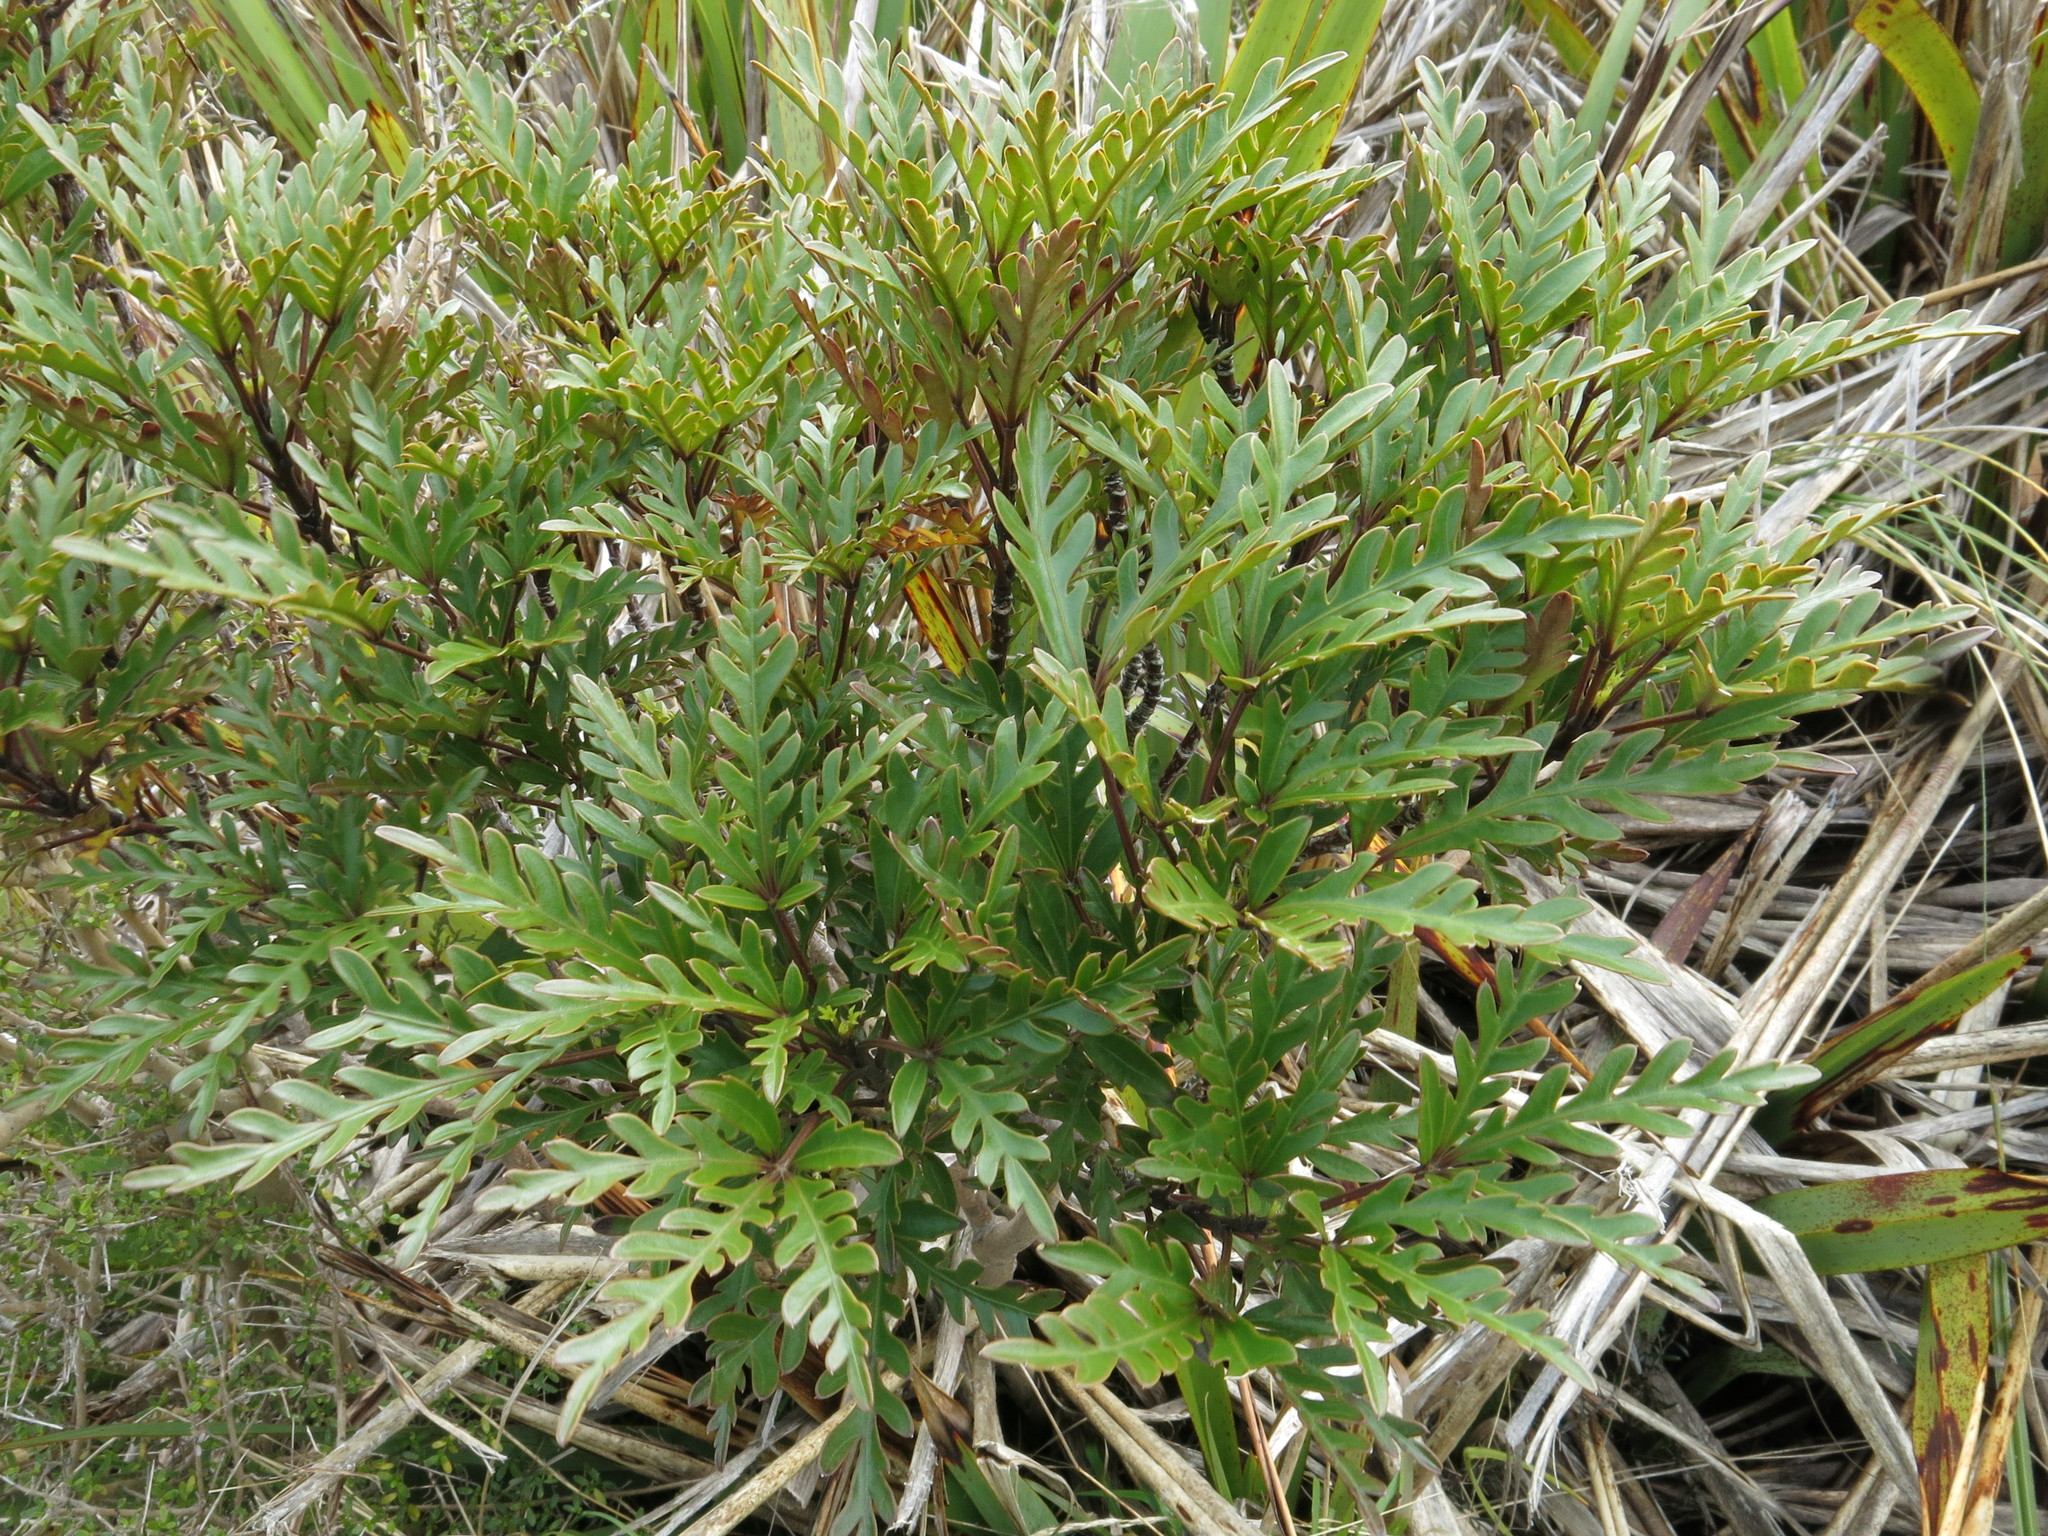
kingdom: Plantae
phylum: Tracheophyta
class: Magnoliopsida
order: Apiales
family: Araliaceae
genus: Raukaua
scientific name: Raukaua simplex
